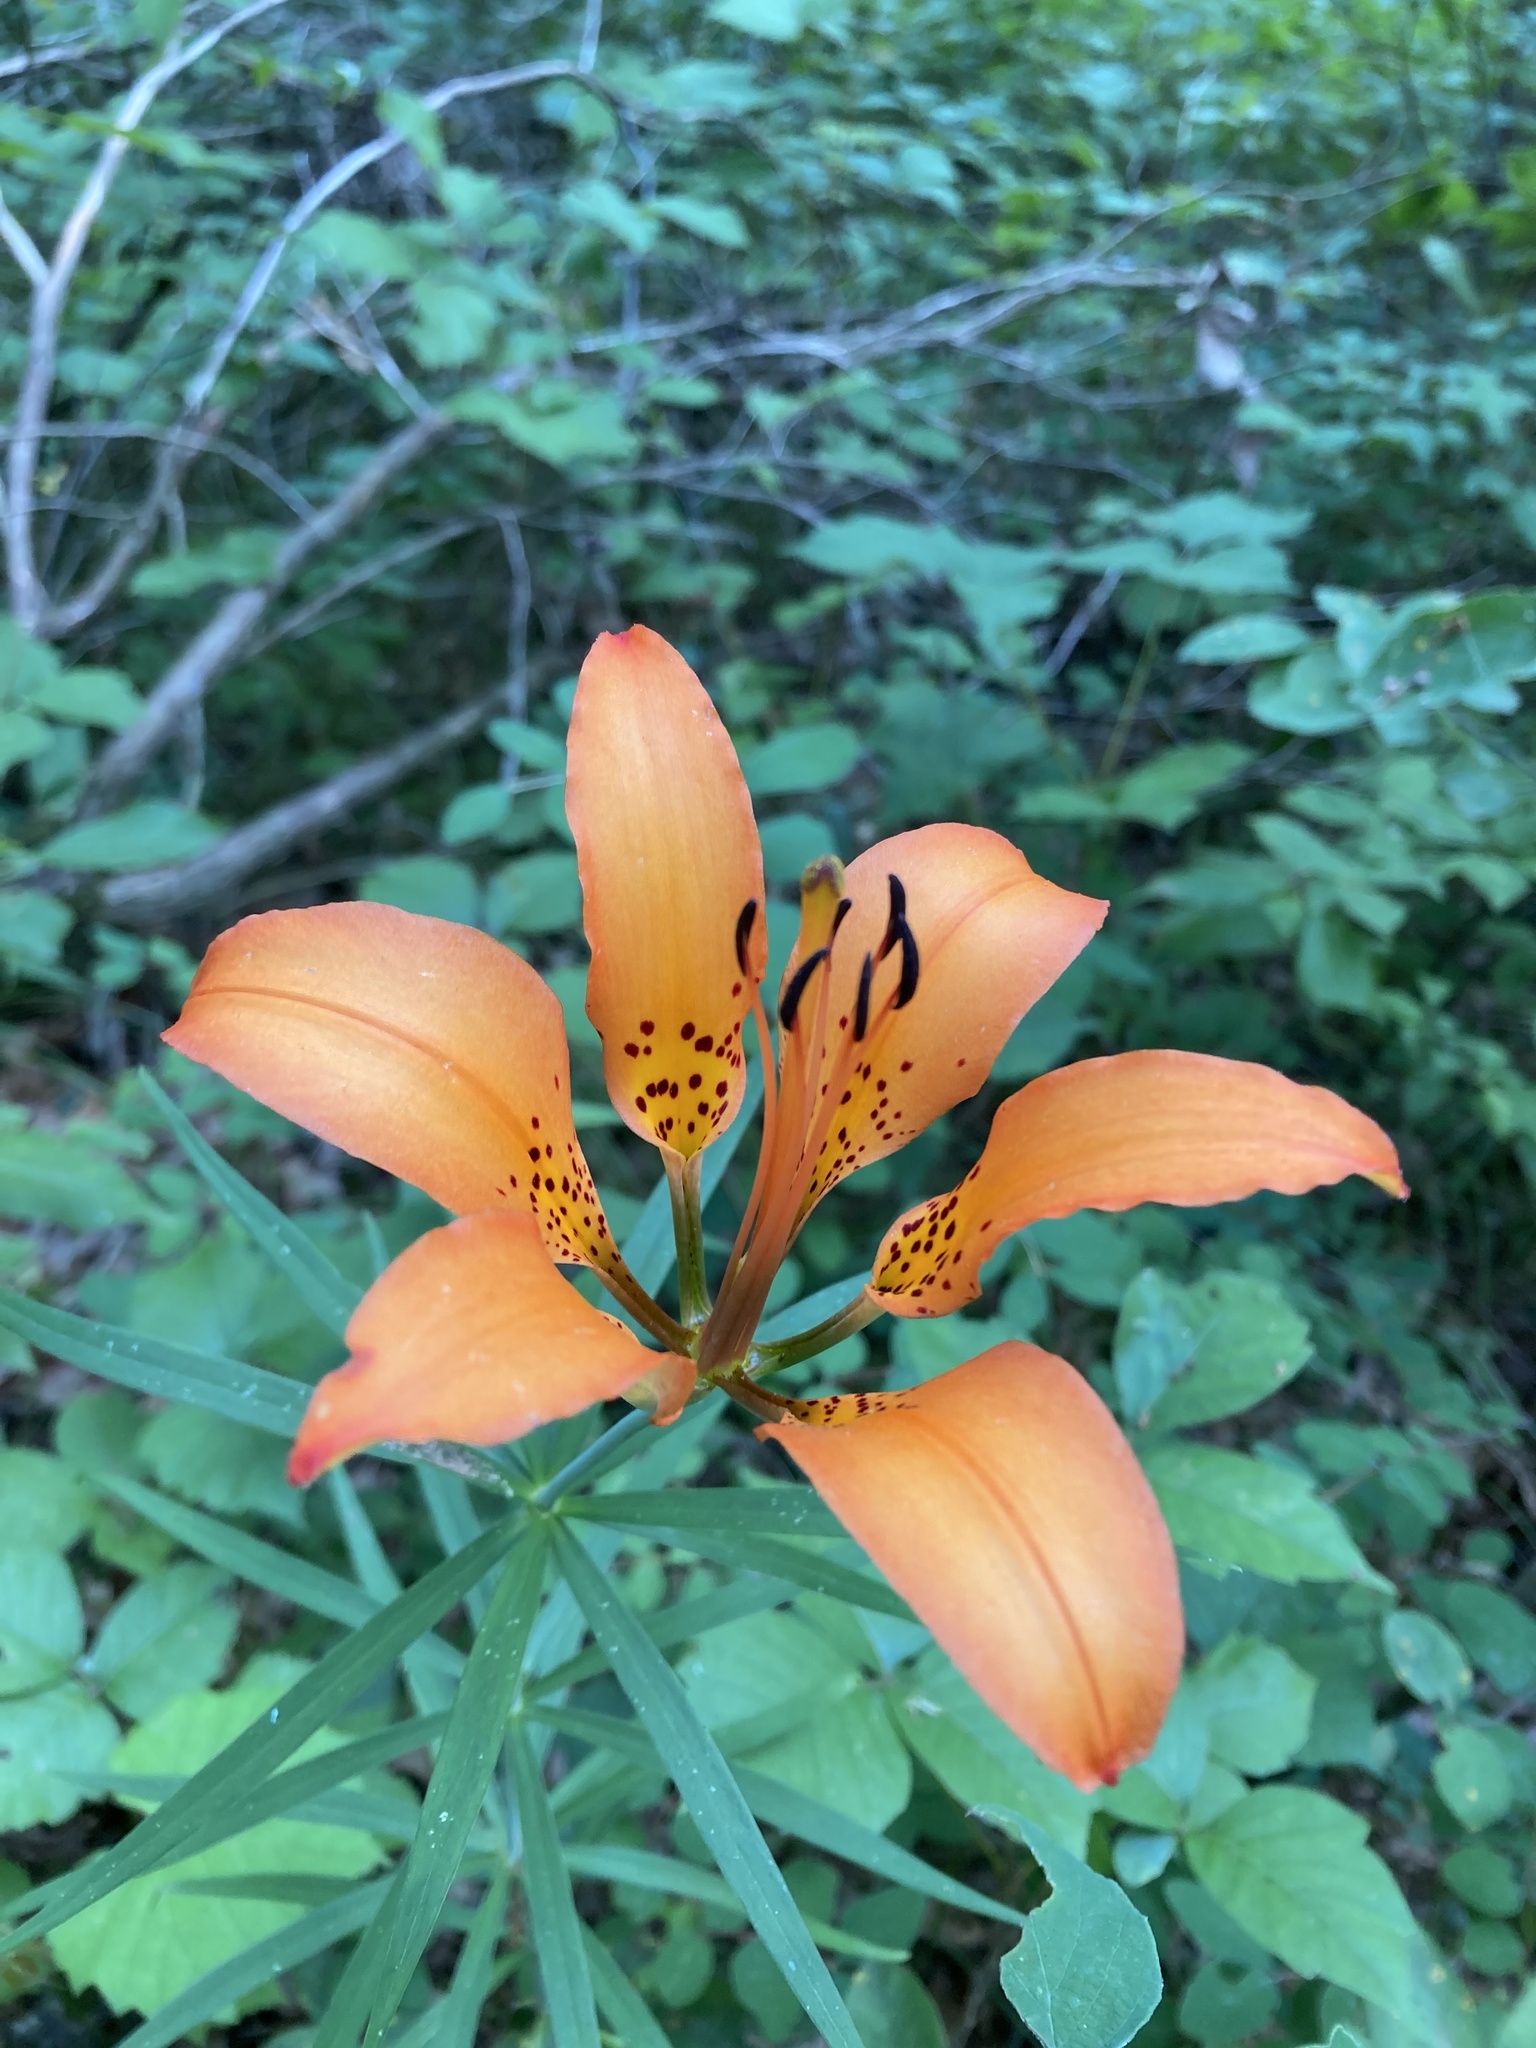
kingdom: Plantae
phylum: Tracheophyta
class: Liliopsida
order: Liliales
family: Liliaceae
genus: Lilium
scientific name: Lilium philadelphicum
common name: Red lily
